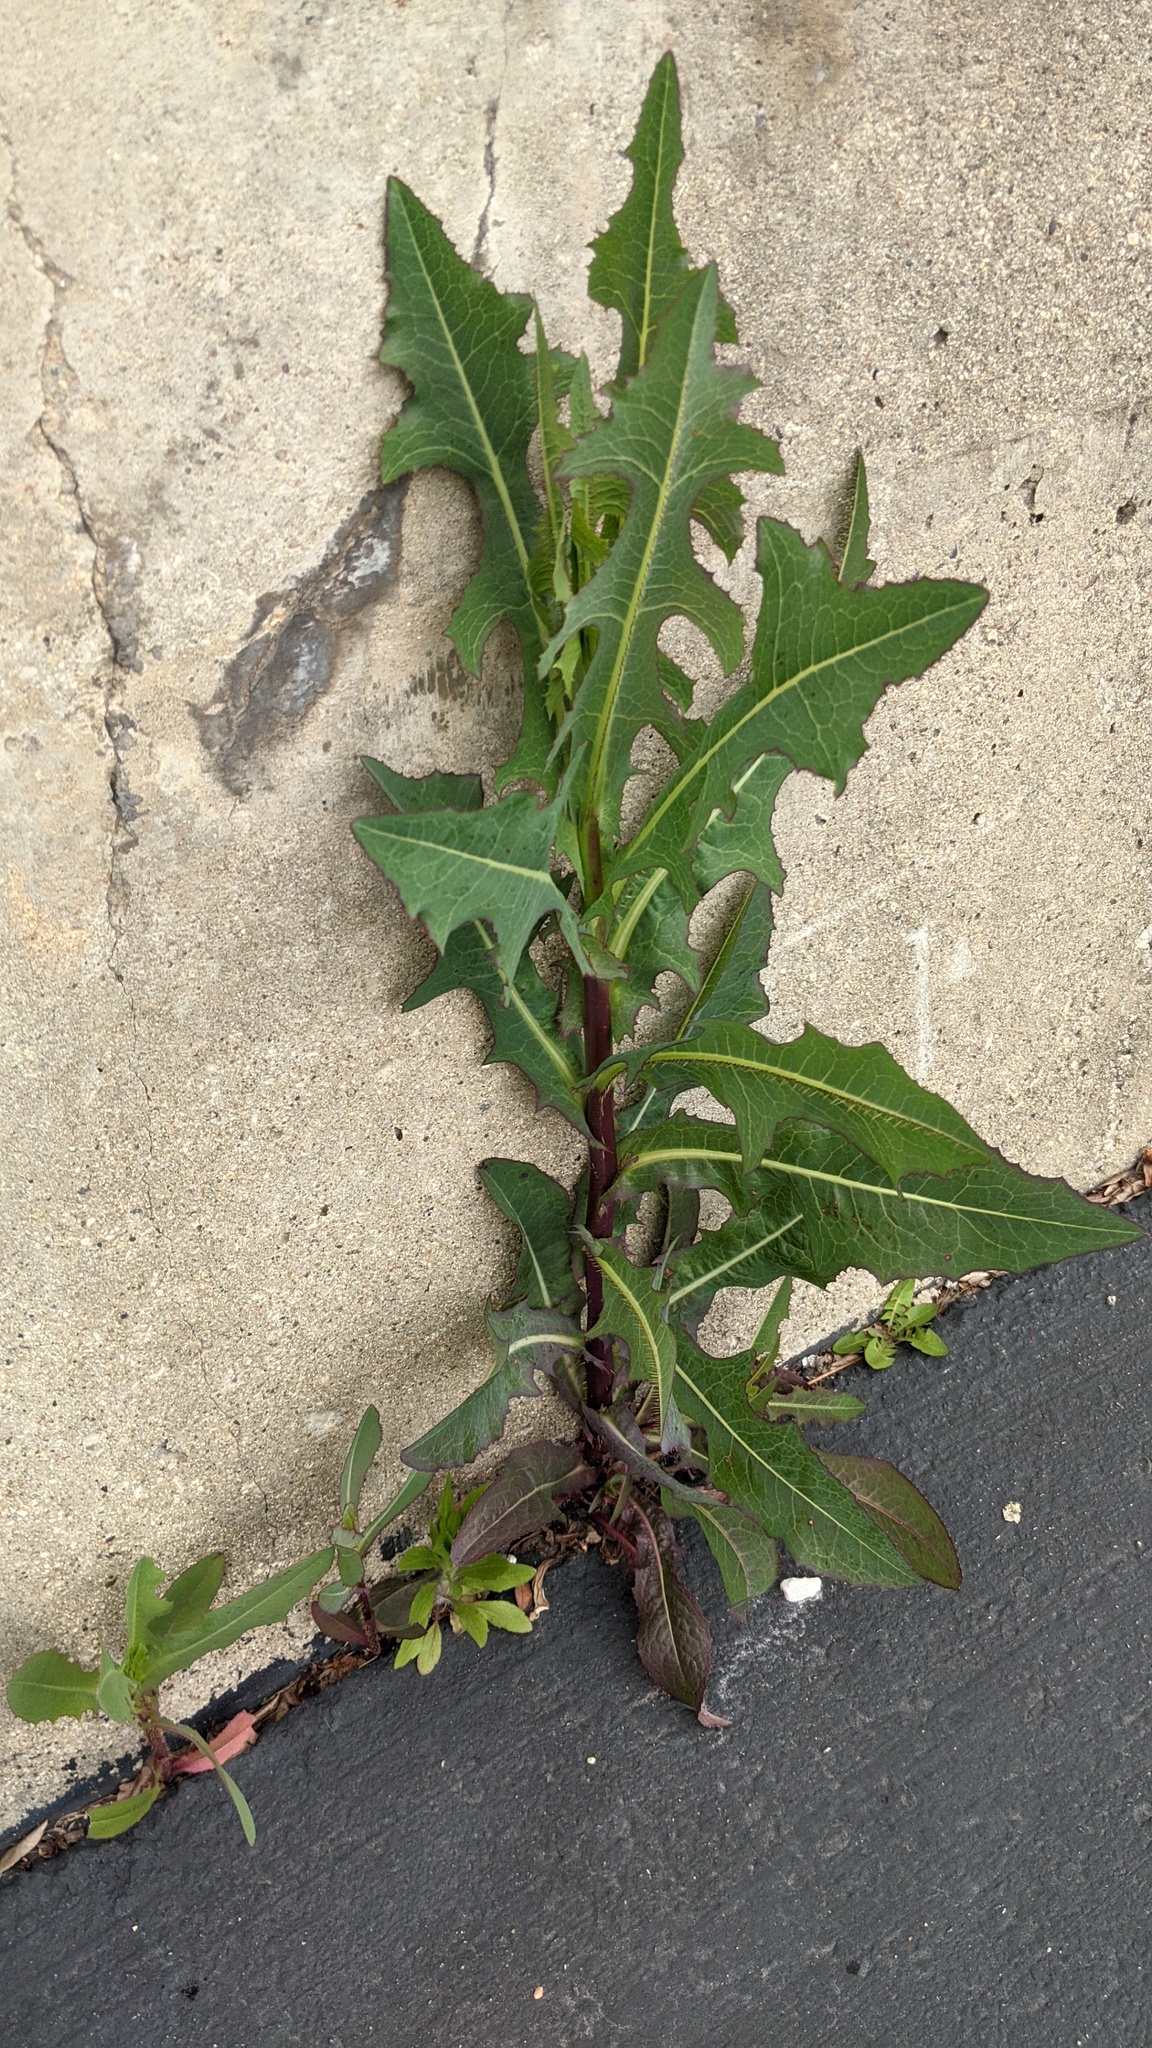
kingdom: Plantae
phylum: Tracheophyta
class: Magnoliopsida
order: Asterales
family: Asteraceae
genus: Lactuca
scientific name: Lactuca serriola
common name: Prickly lettuce
